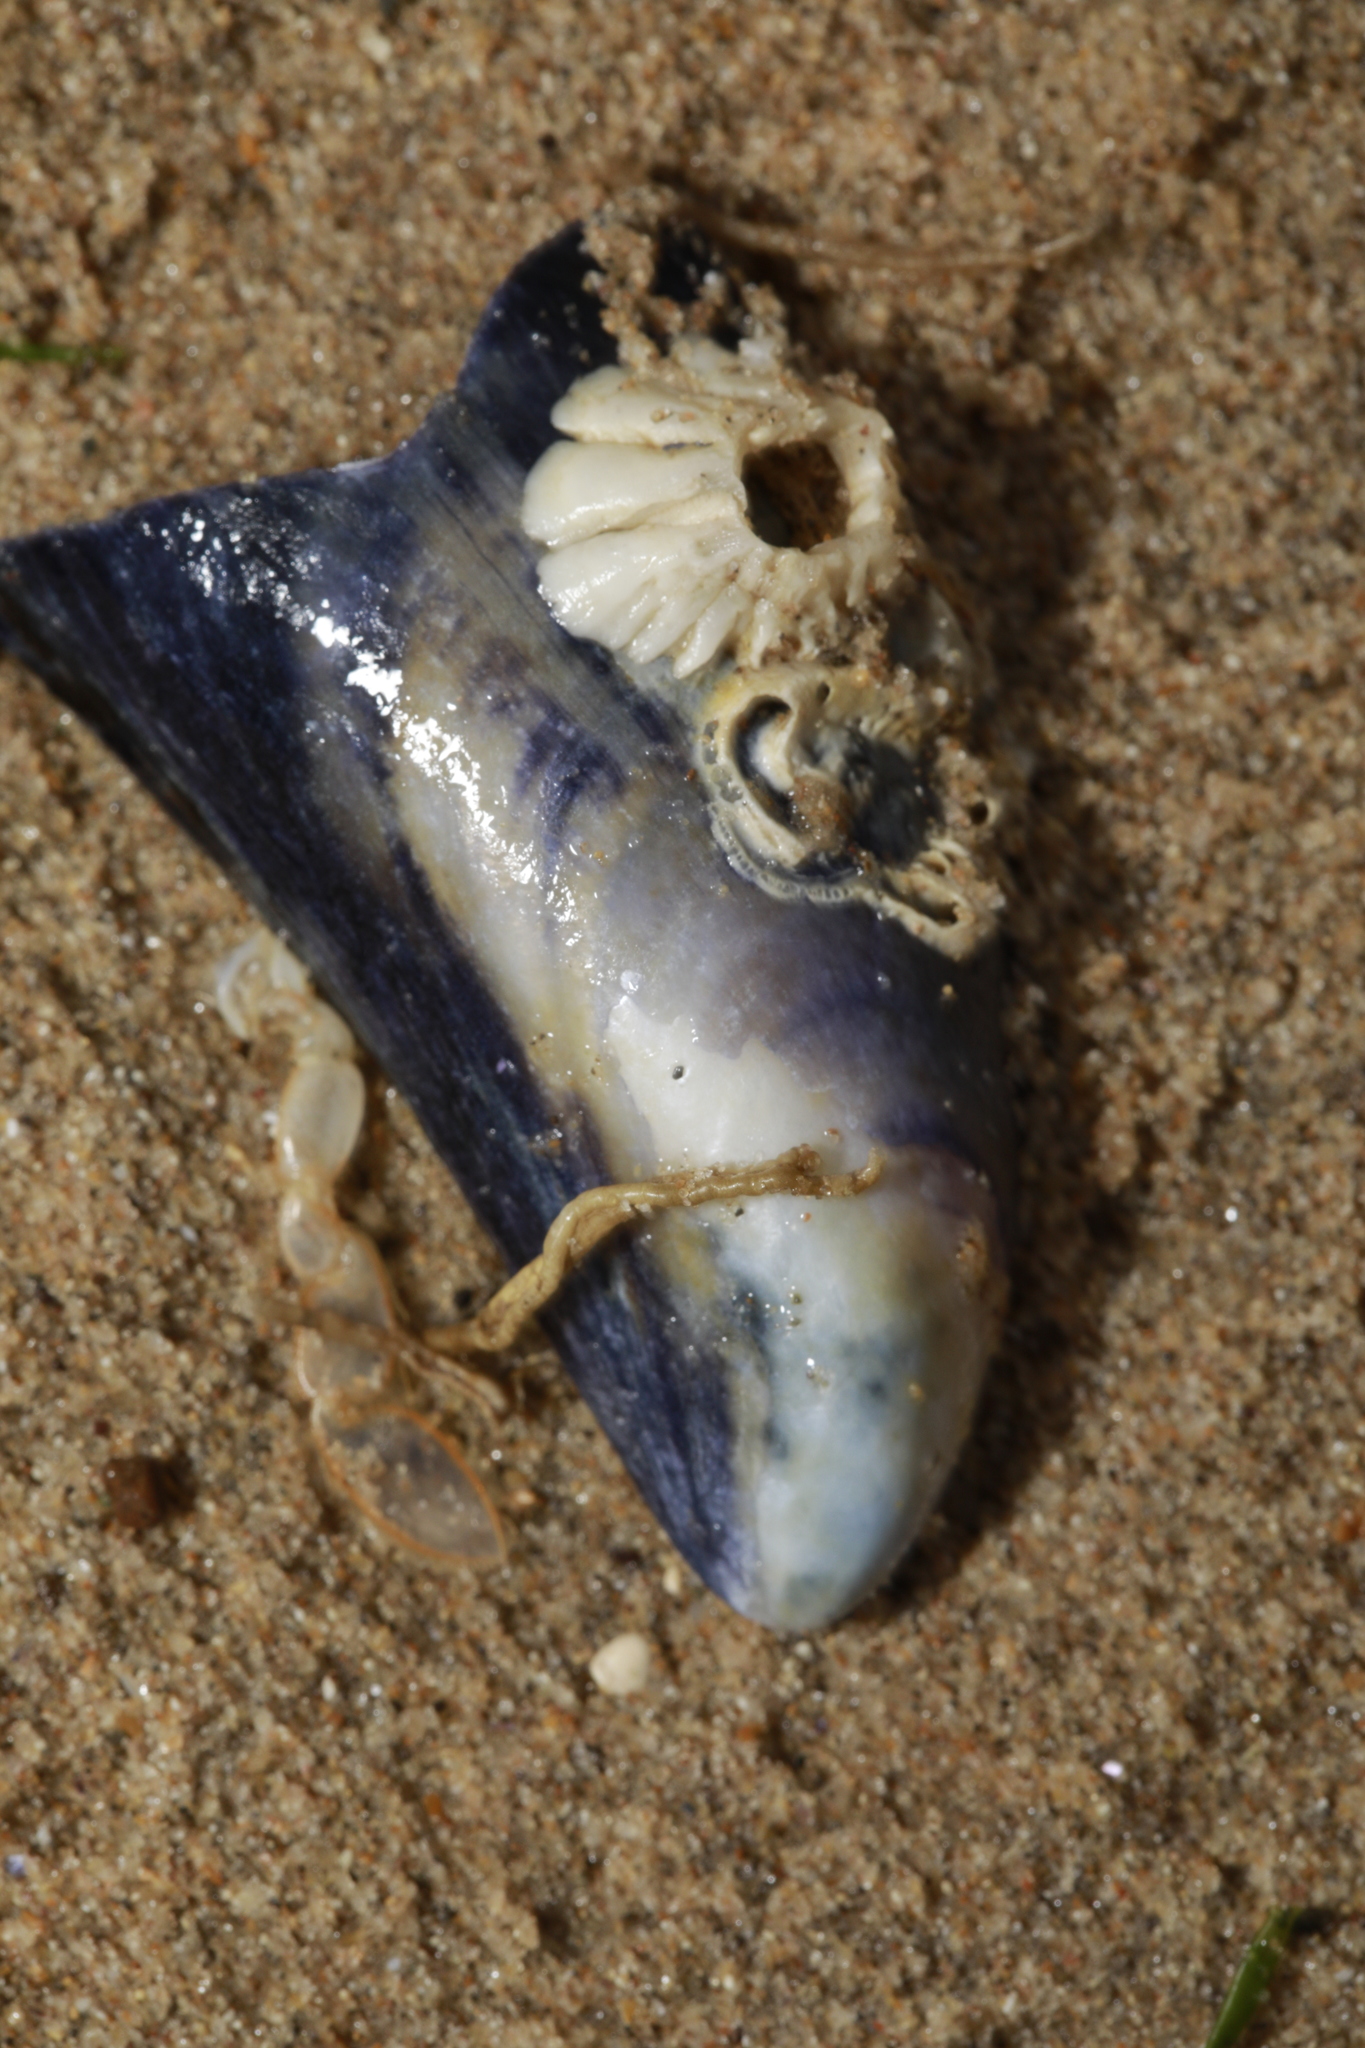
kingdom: Animalia
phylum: Mollusca
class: Bivalvia
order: Mytilida
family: Mytilidae
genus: Mytilus
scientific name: Mytilus edulis
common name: Blue mussel
